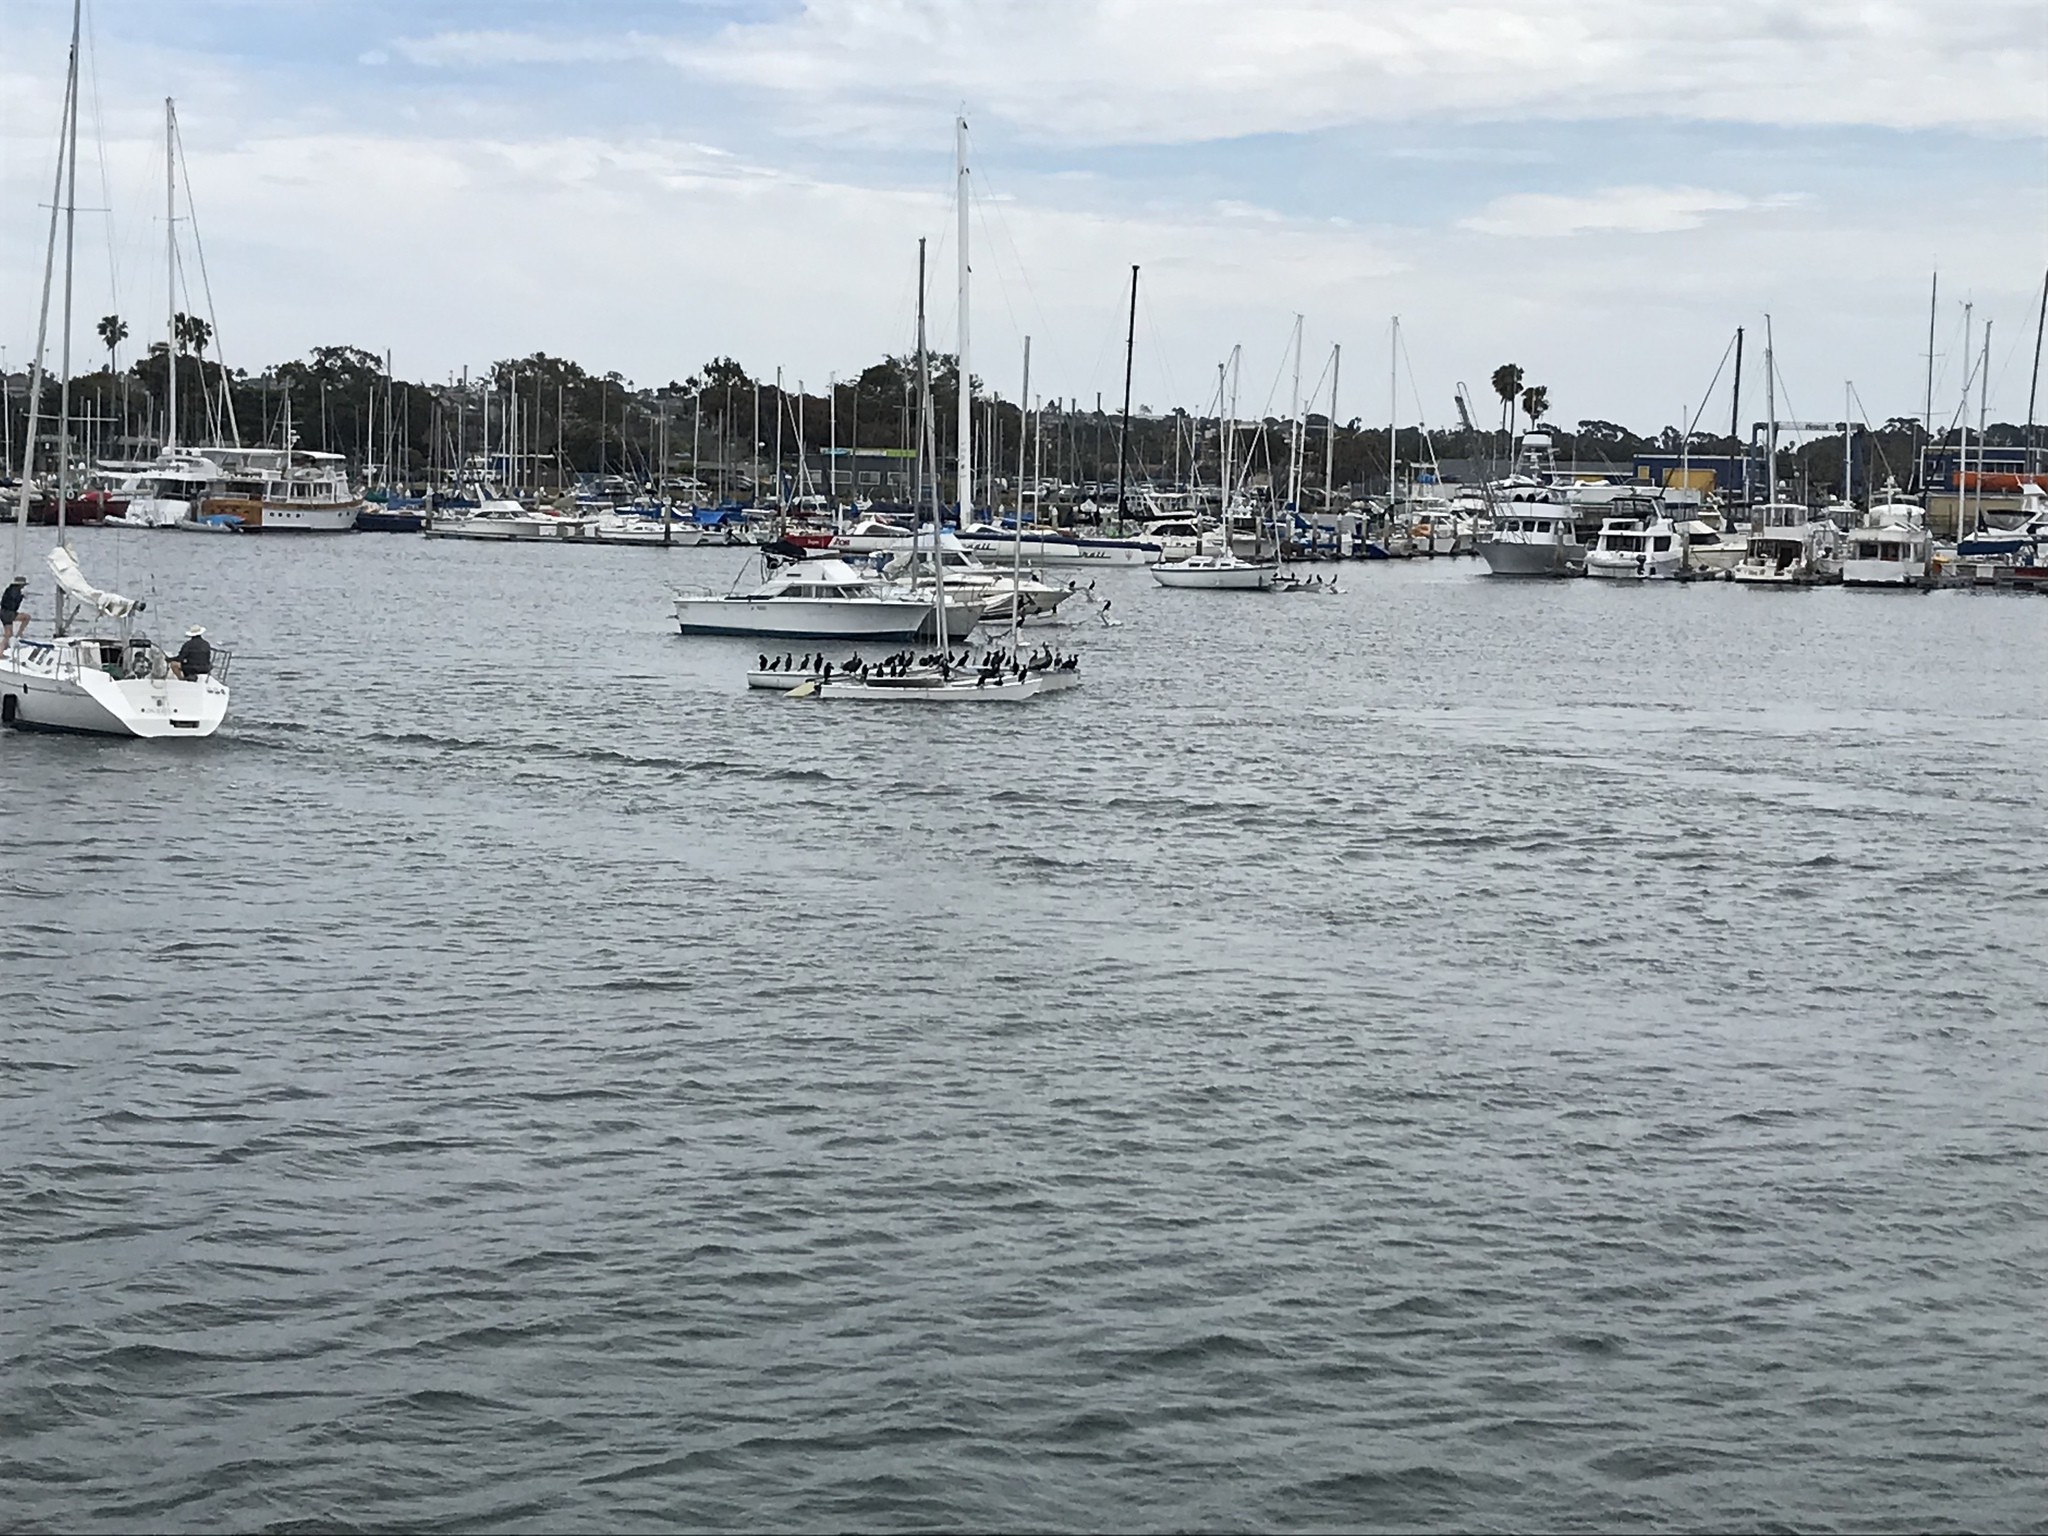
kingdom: Animalia
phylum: Chordata
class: Aves
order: Suliformes
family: Phalacrocoracidae
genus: Phalacrocorax
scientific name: Phalacrocorax auritus
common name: Double-crested cormorant
